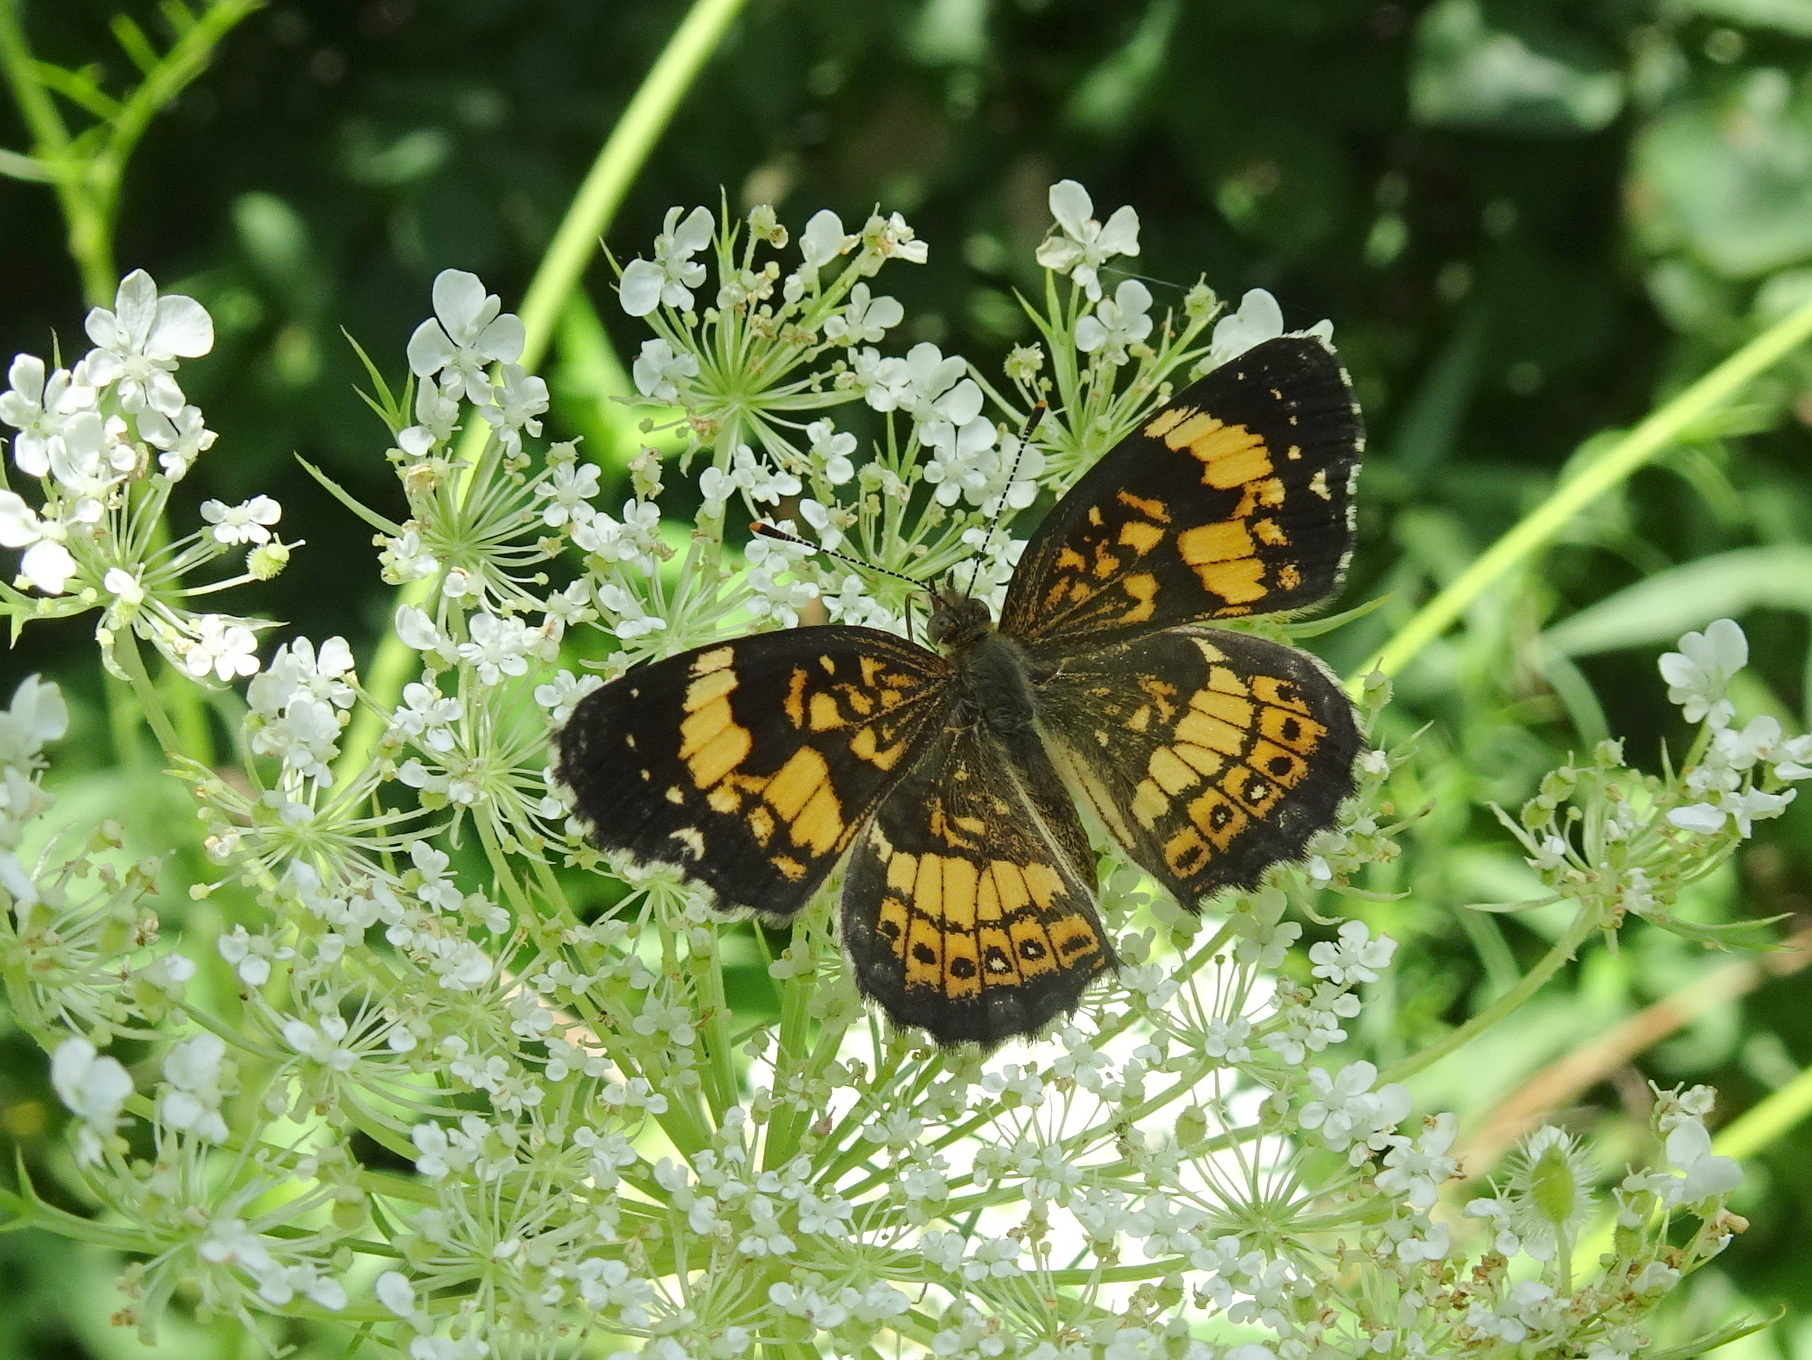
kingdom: Animalia
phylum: Arthropoda
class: Insecta
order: Lepidoptera
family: Nymphalidae
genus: Chlosyne
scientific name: Chlosyne nycteis
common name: Silvery checkerspot
